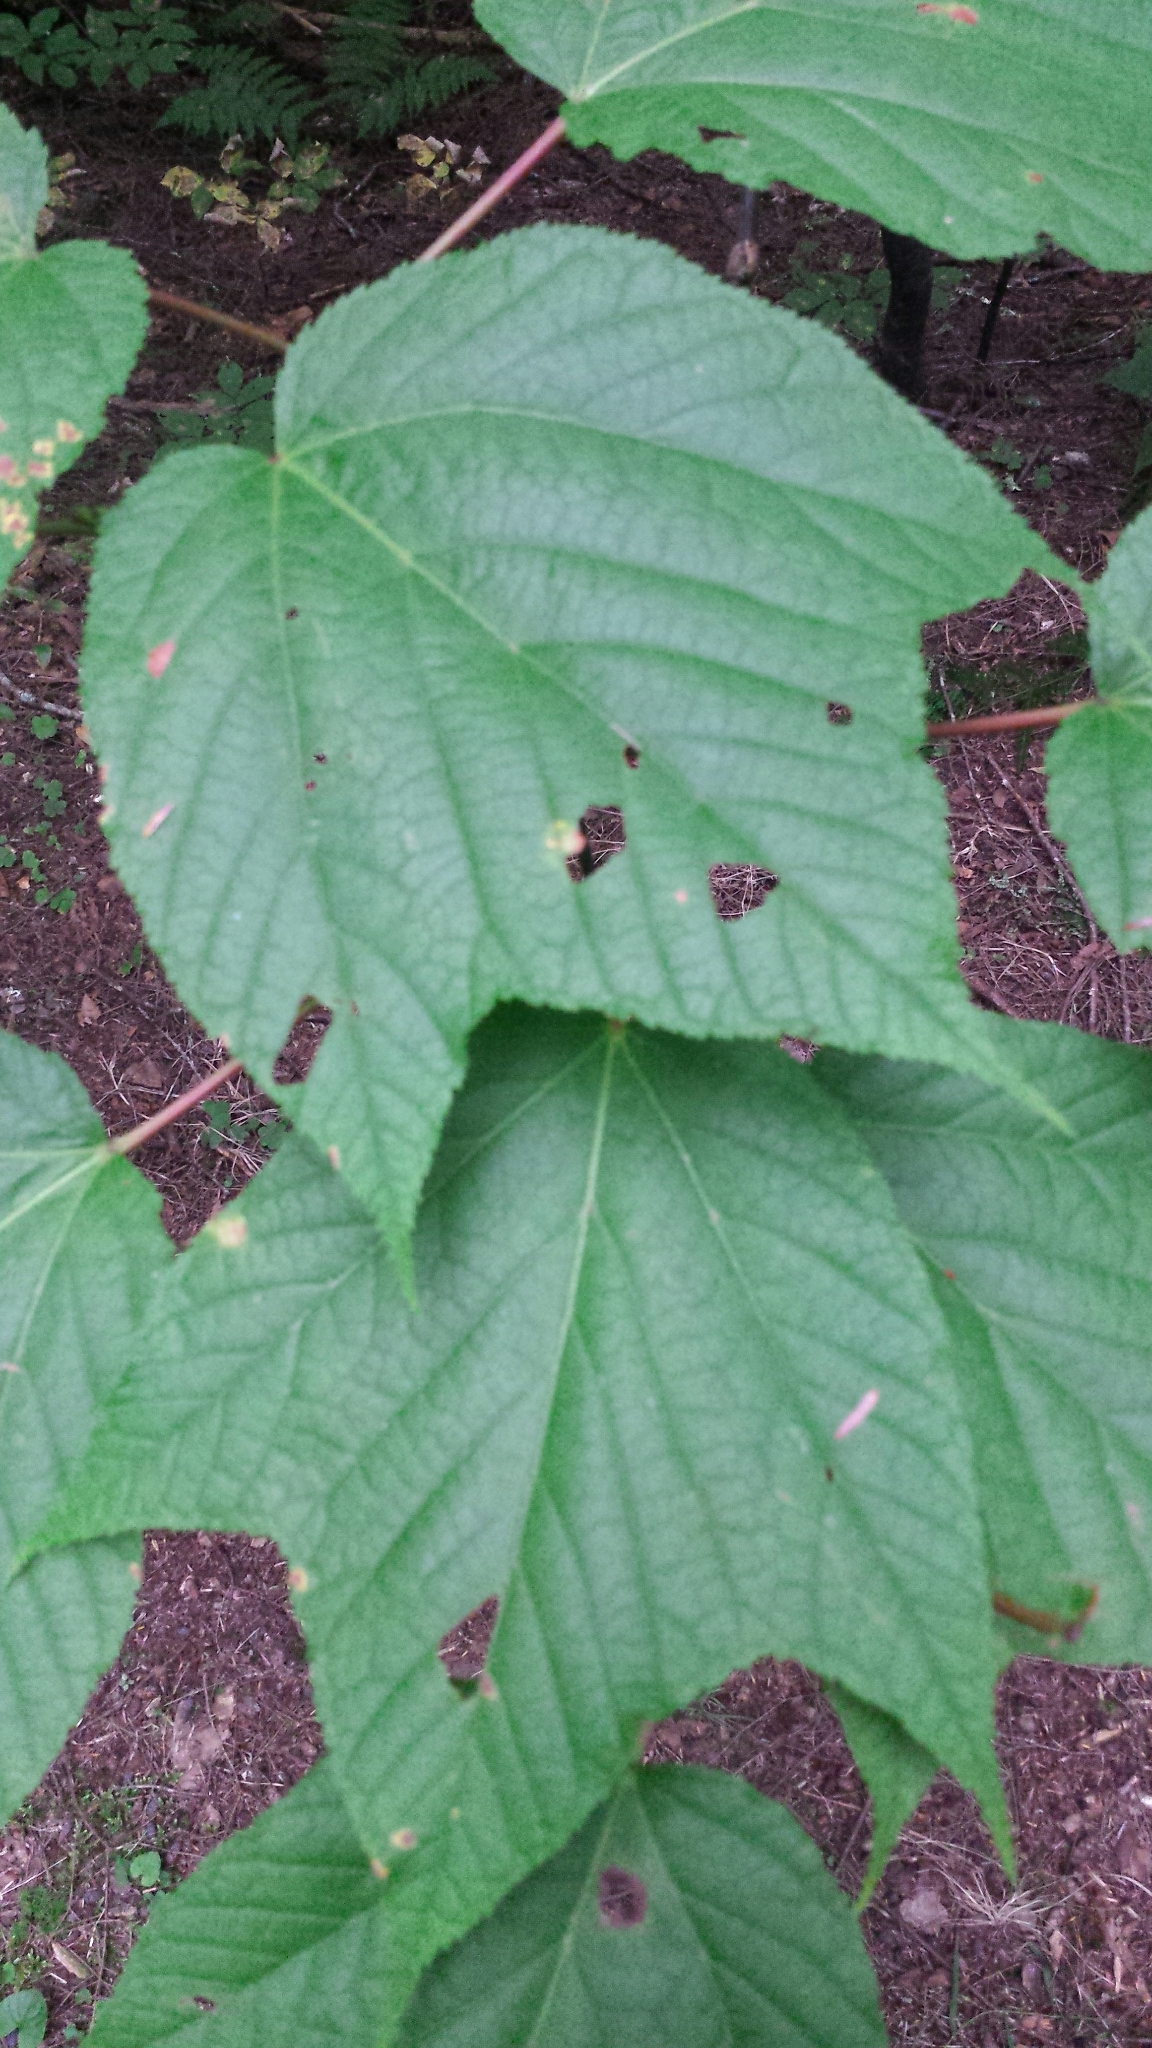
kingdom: Plantae
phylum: Tracheophyta
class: Magnoliopsida
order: Sapindales
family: Sapindaceae
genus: Acer
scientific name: Acer pensylvanicum
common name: Moosewood
